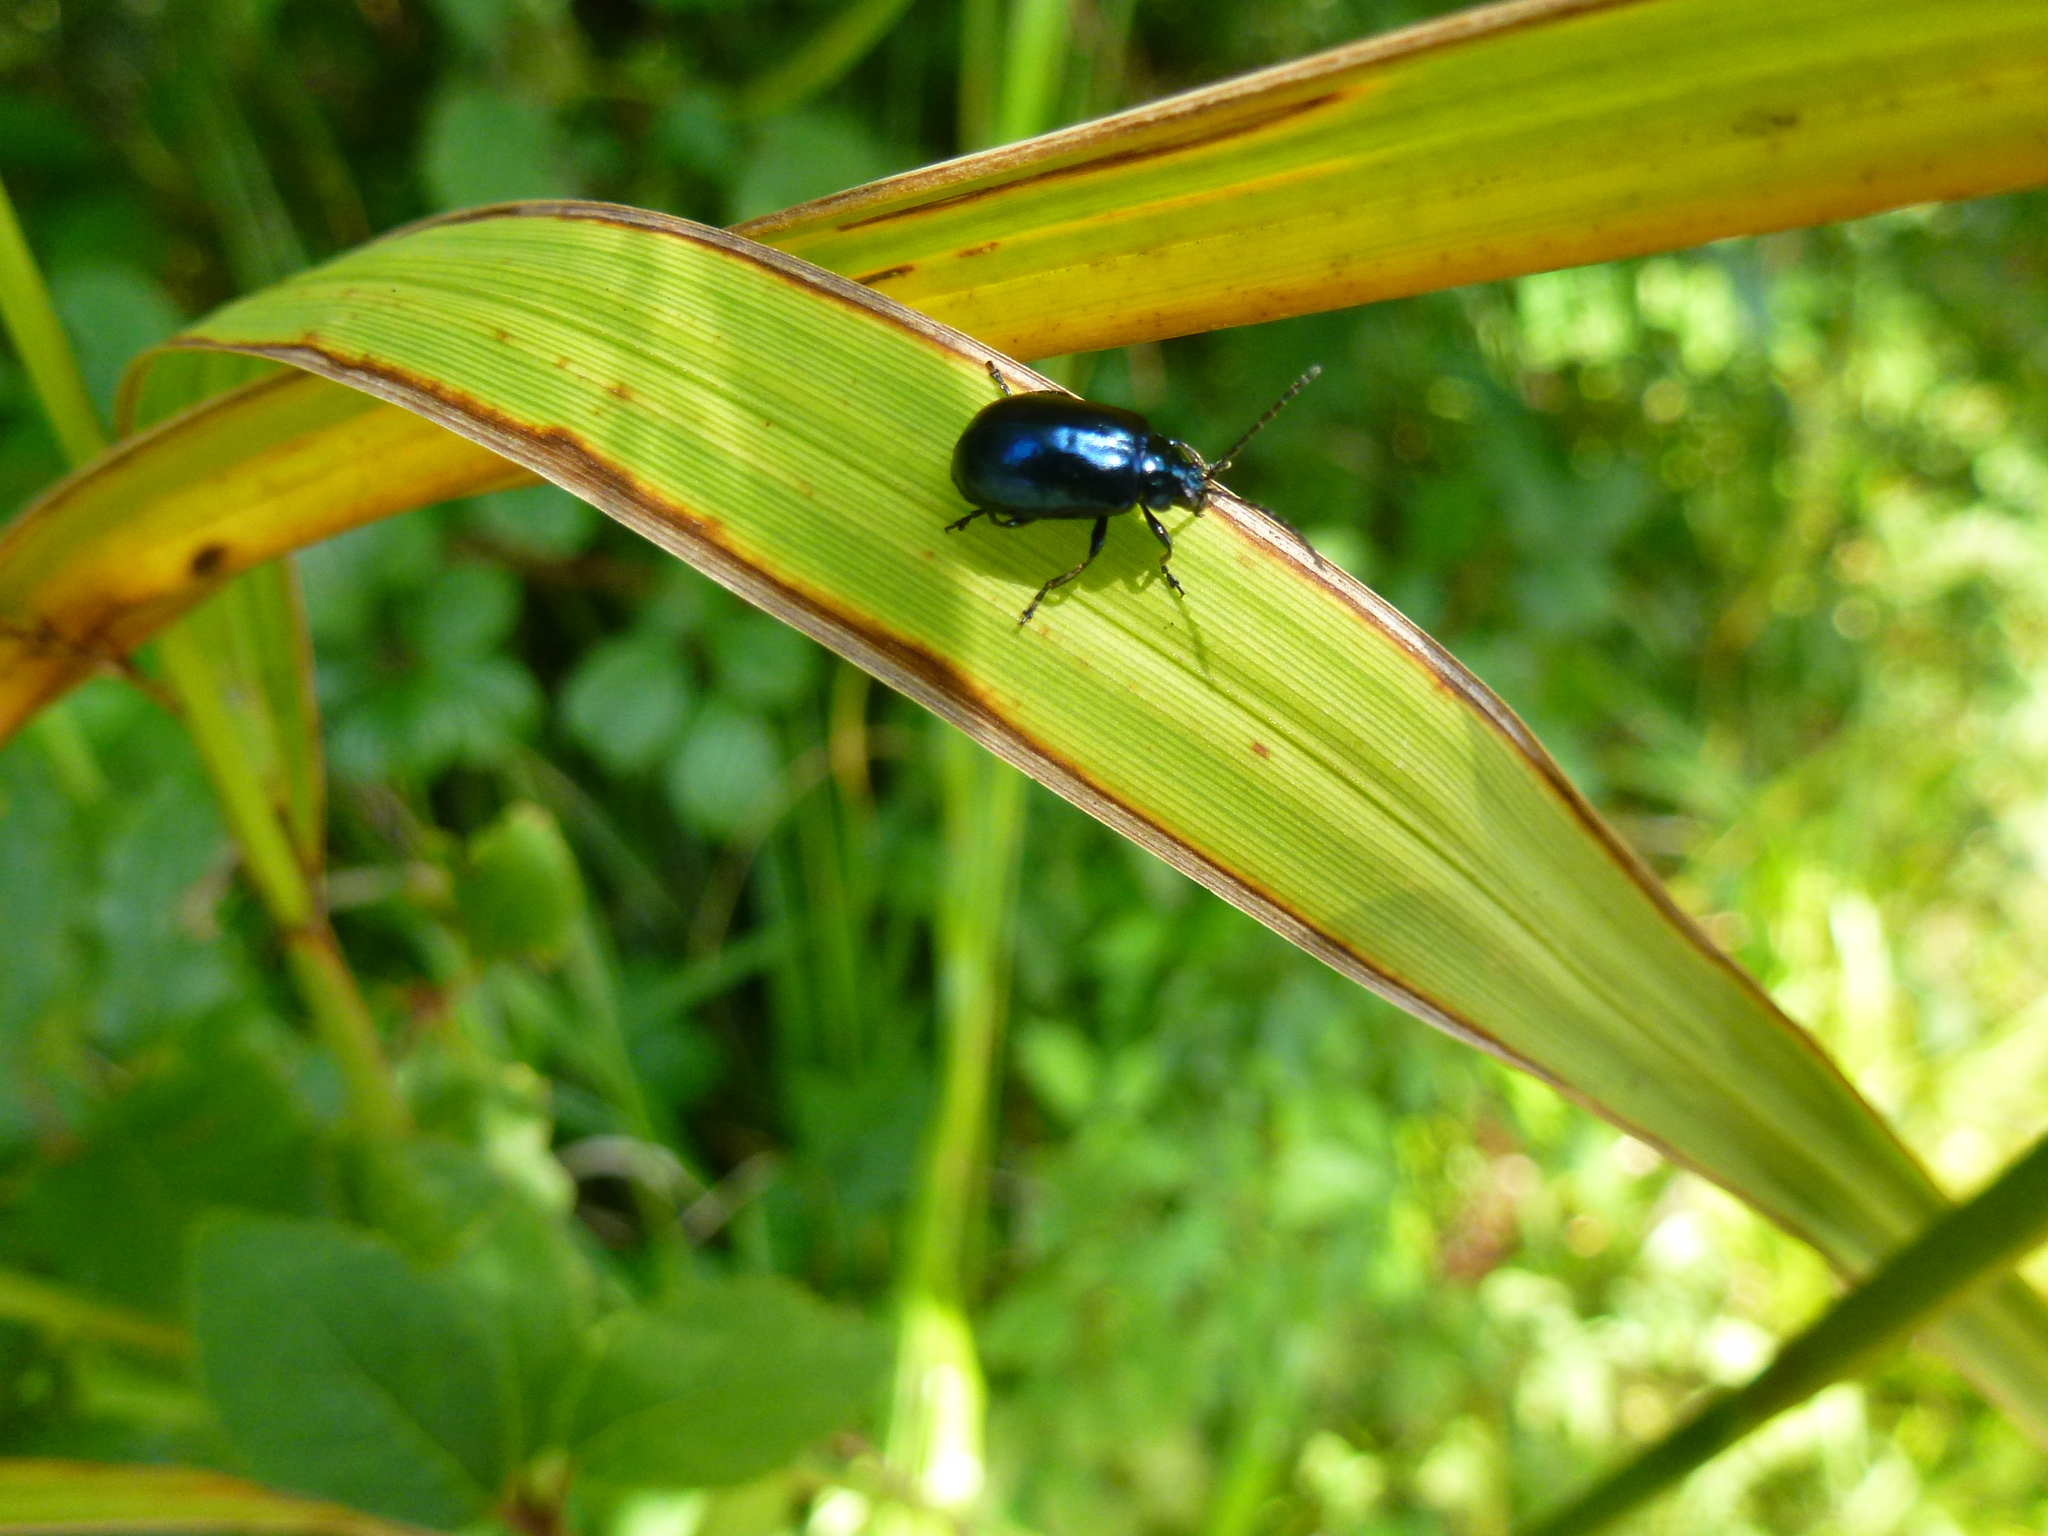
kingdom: Animalia
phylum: Arthropoda
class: Insecta
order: Coleoptera
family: Chrysomelidae
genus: Agelastica
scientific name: Agelastica alni
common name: Alder leaf beetle
